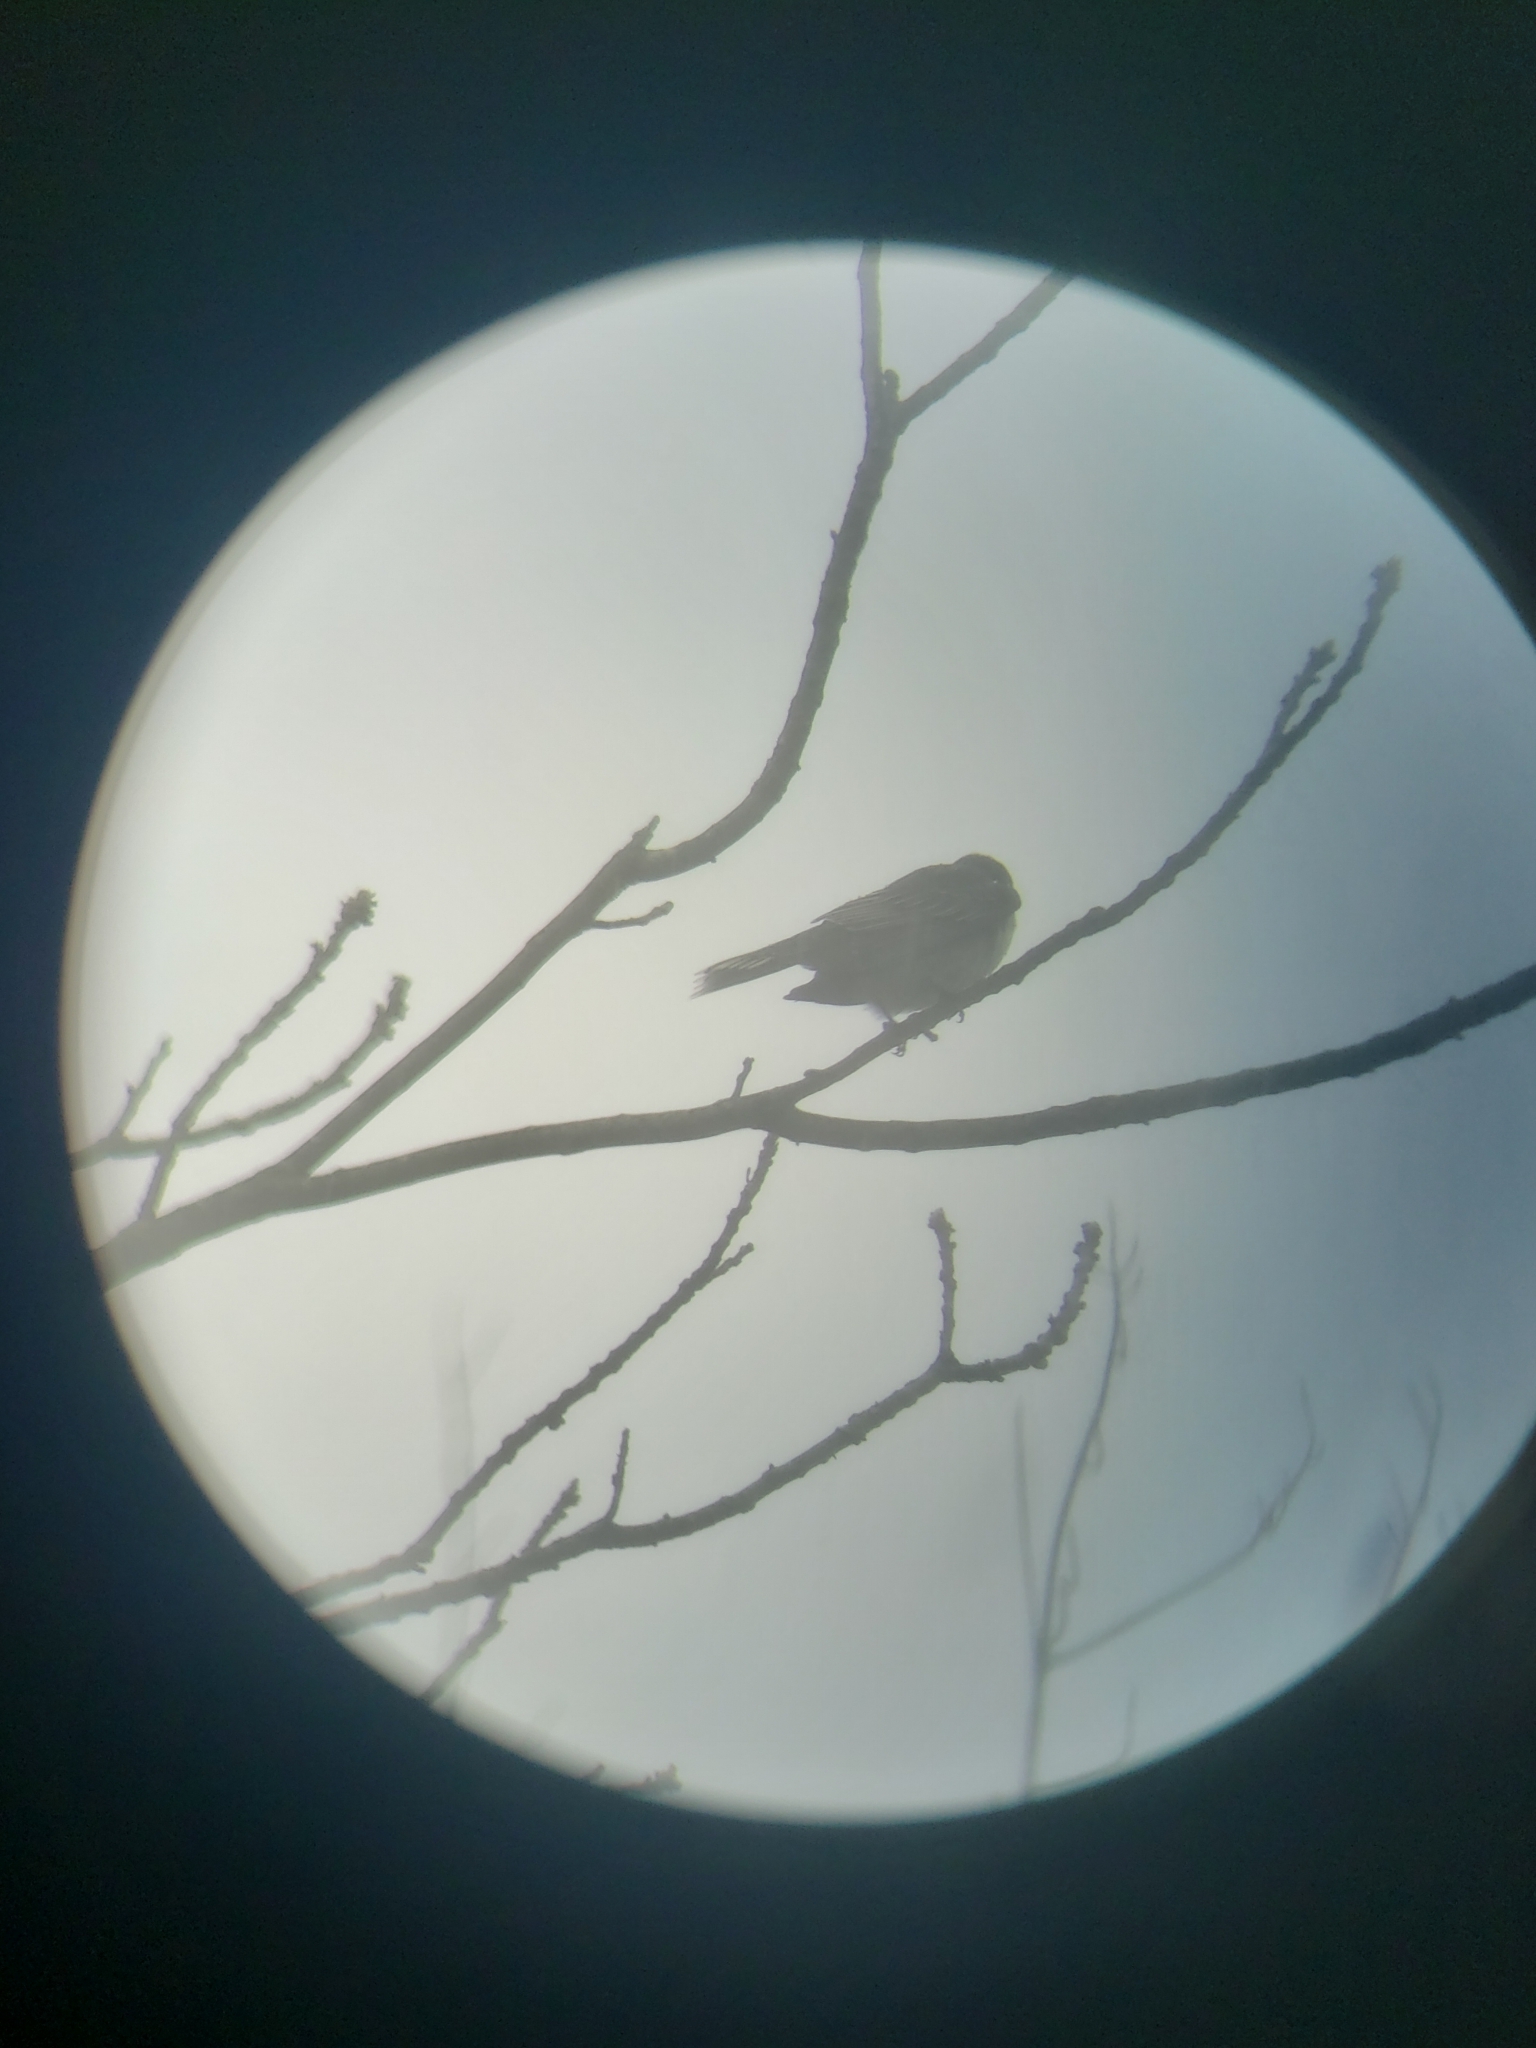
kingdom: Animalia
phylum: Chordata
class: Aves
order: Passeriformes
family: Tyrannidae
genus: Tyrannus
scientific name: Tyrannus tyrannus
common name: Eastern kingbird
